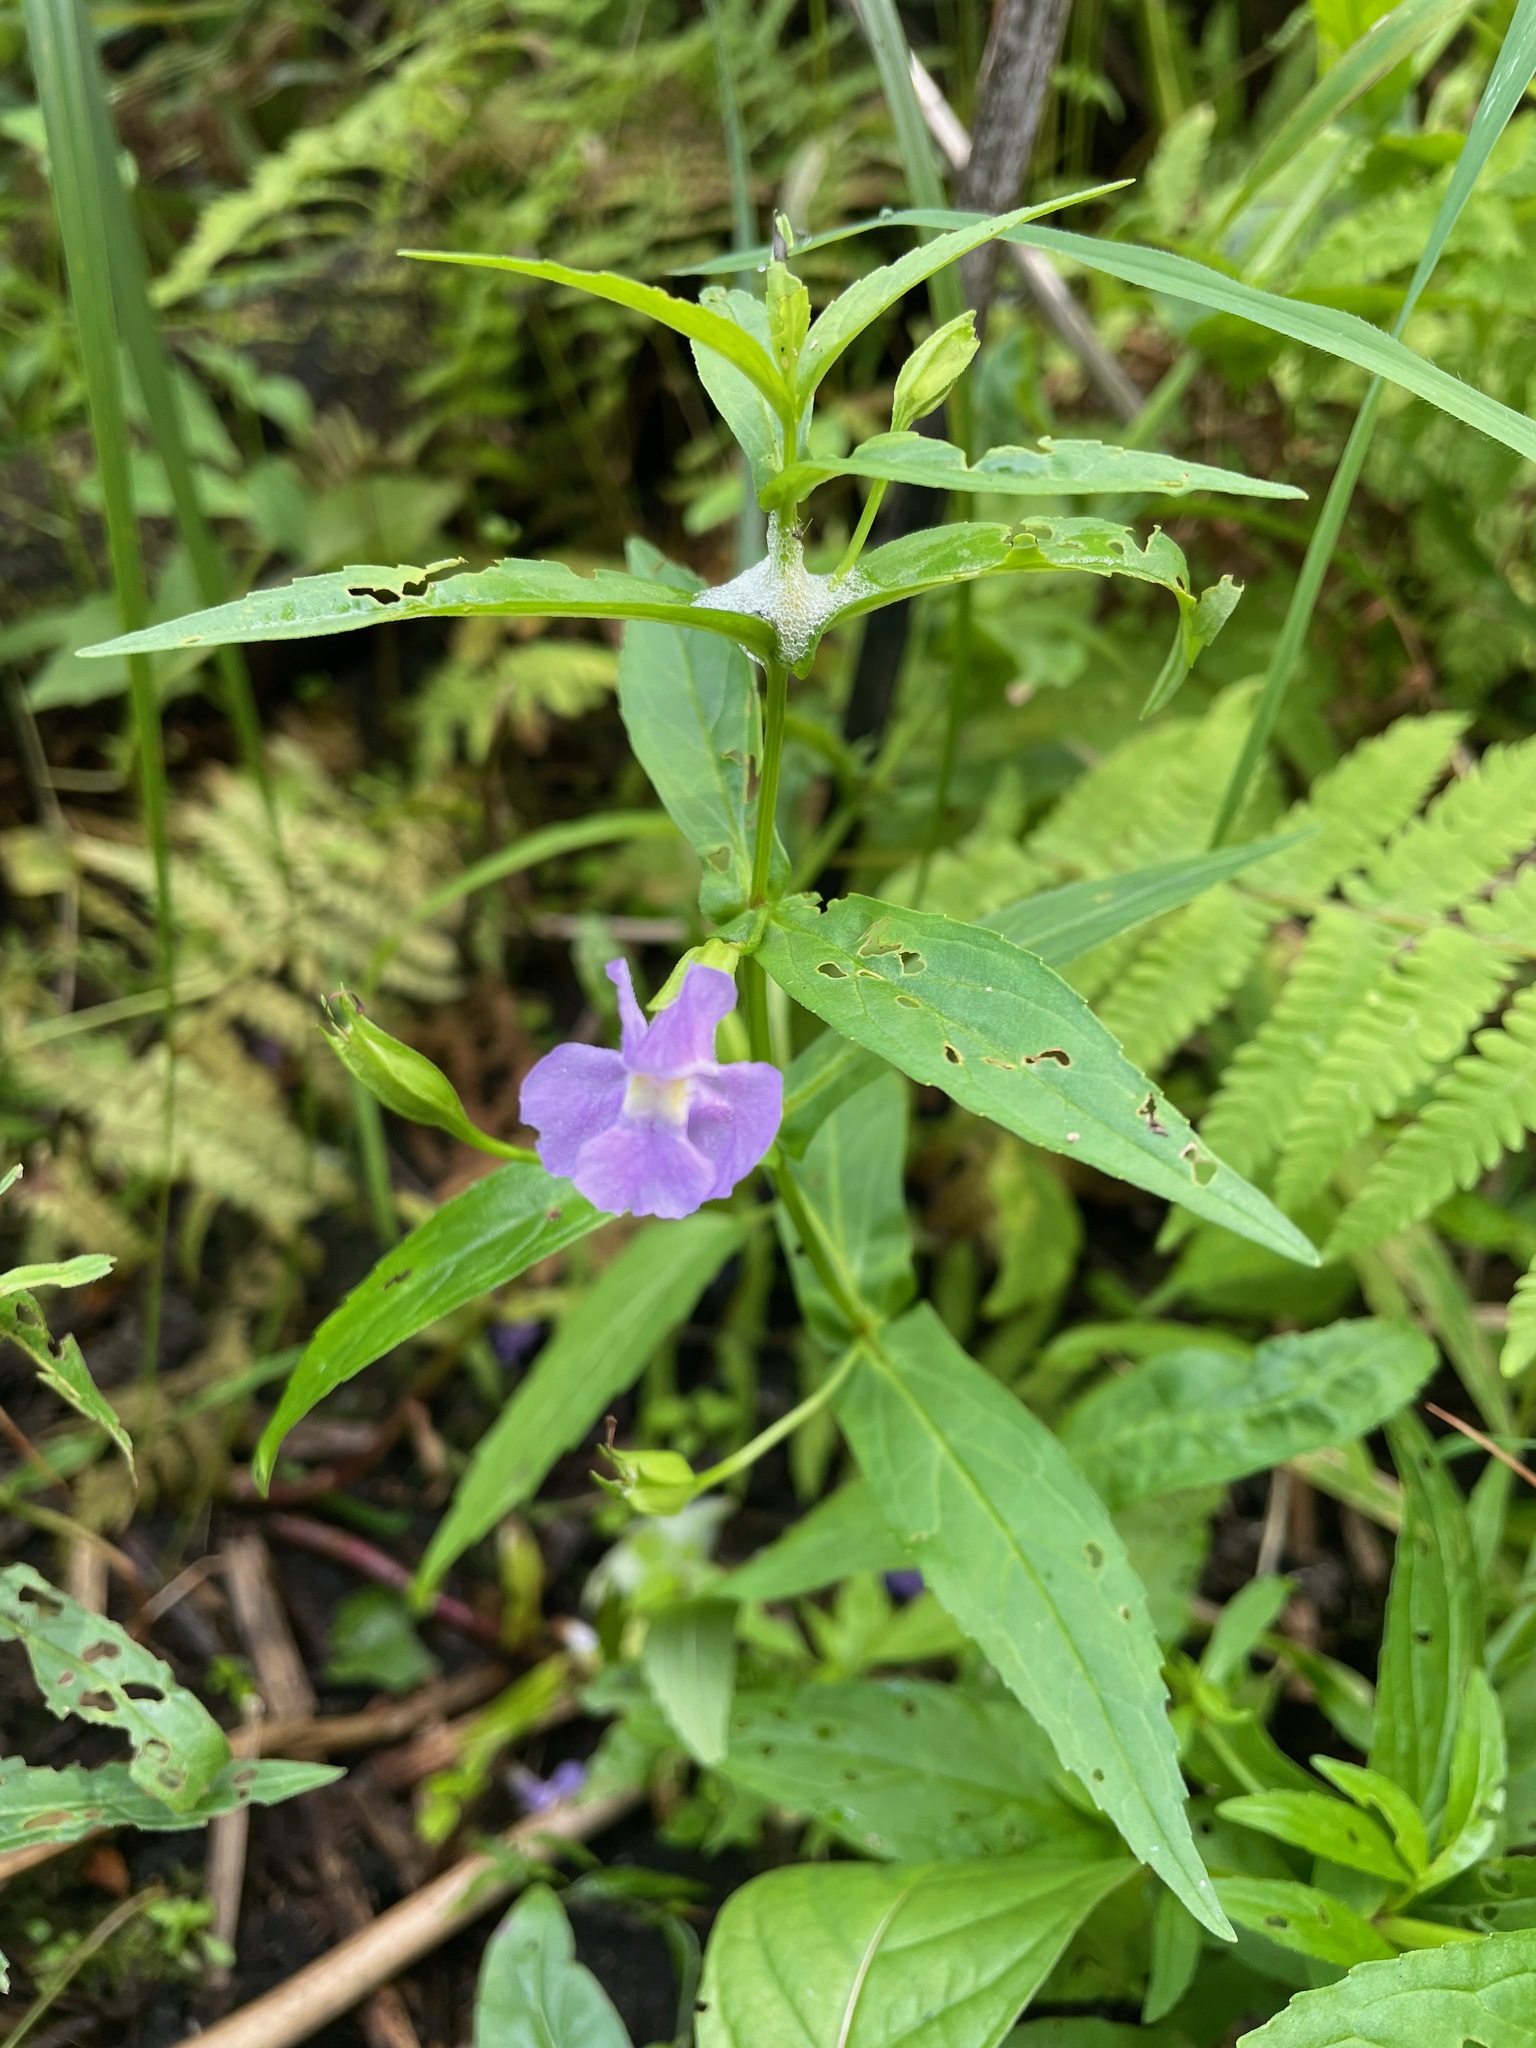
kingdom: Plantae
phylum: Tracheophyta
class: Magnoliopsida
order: Lamiales
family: Phrymaceae
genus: Mimulus
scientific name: Mimulus ringens
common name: Allegheny monkeyflower
